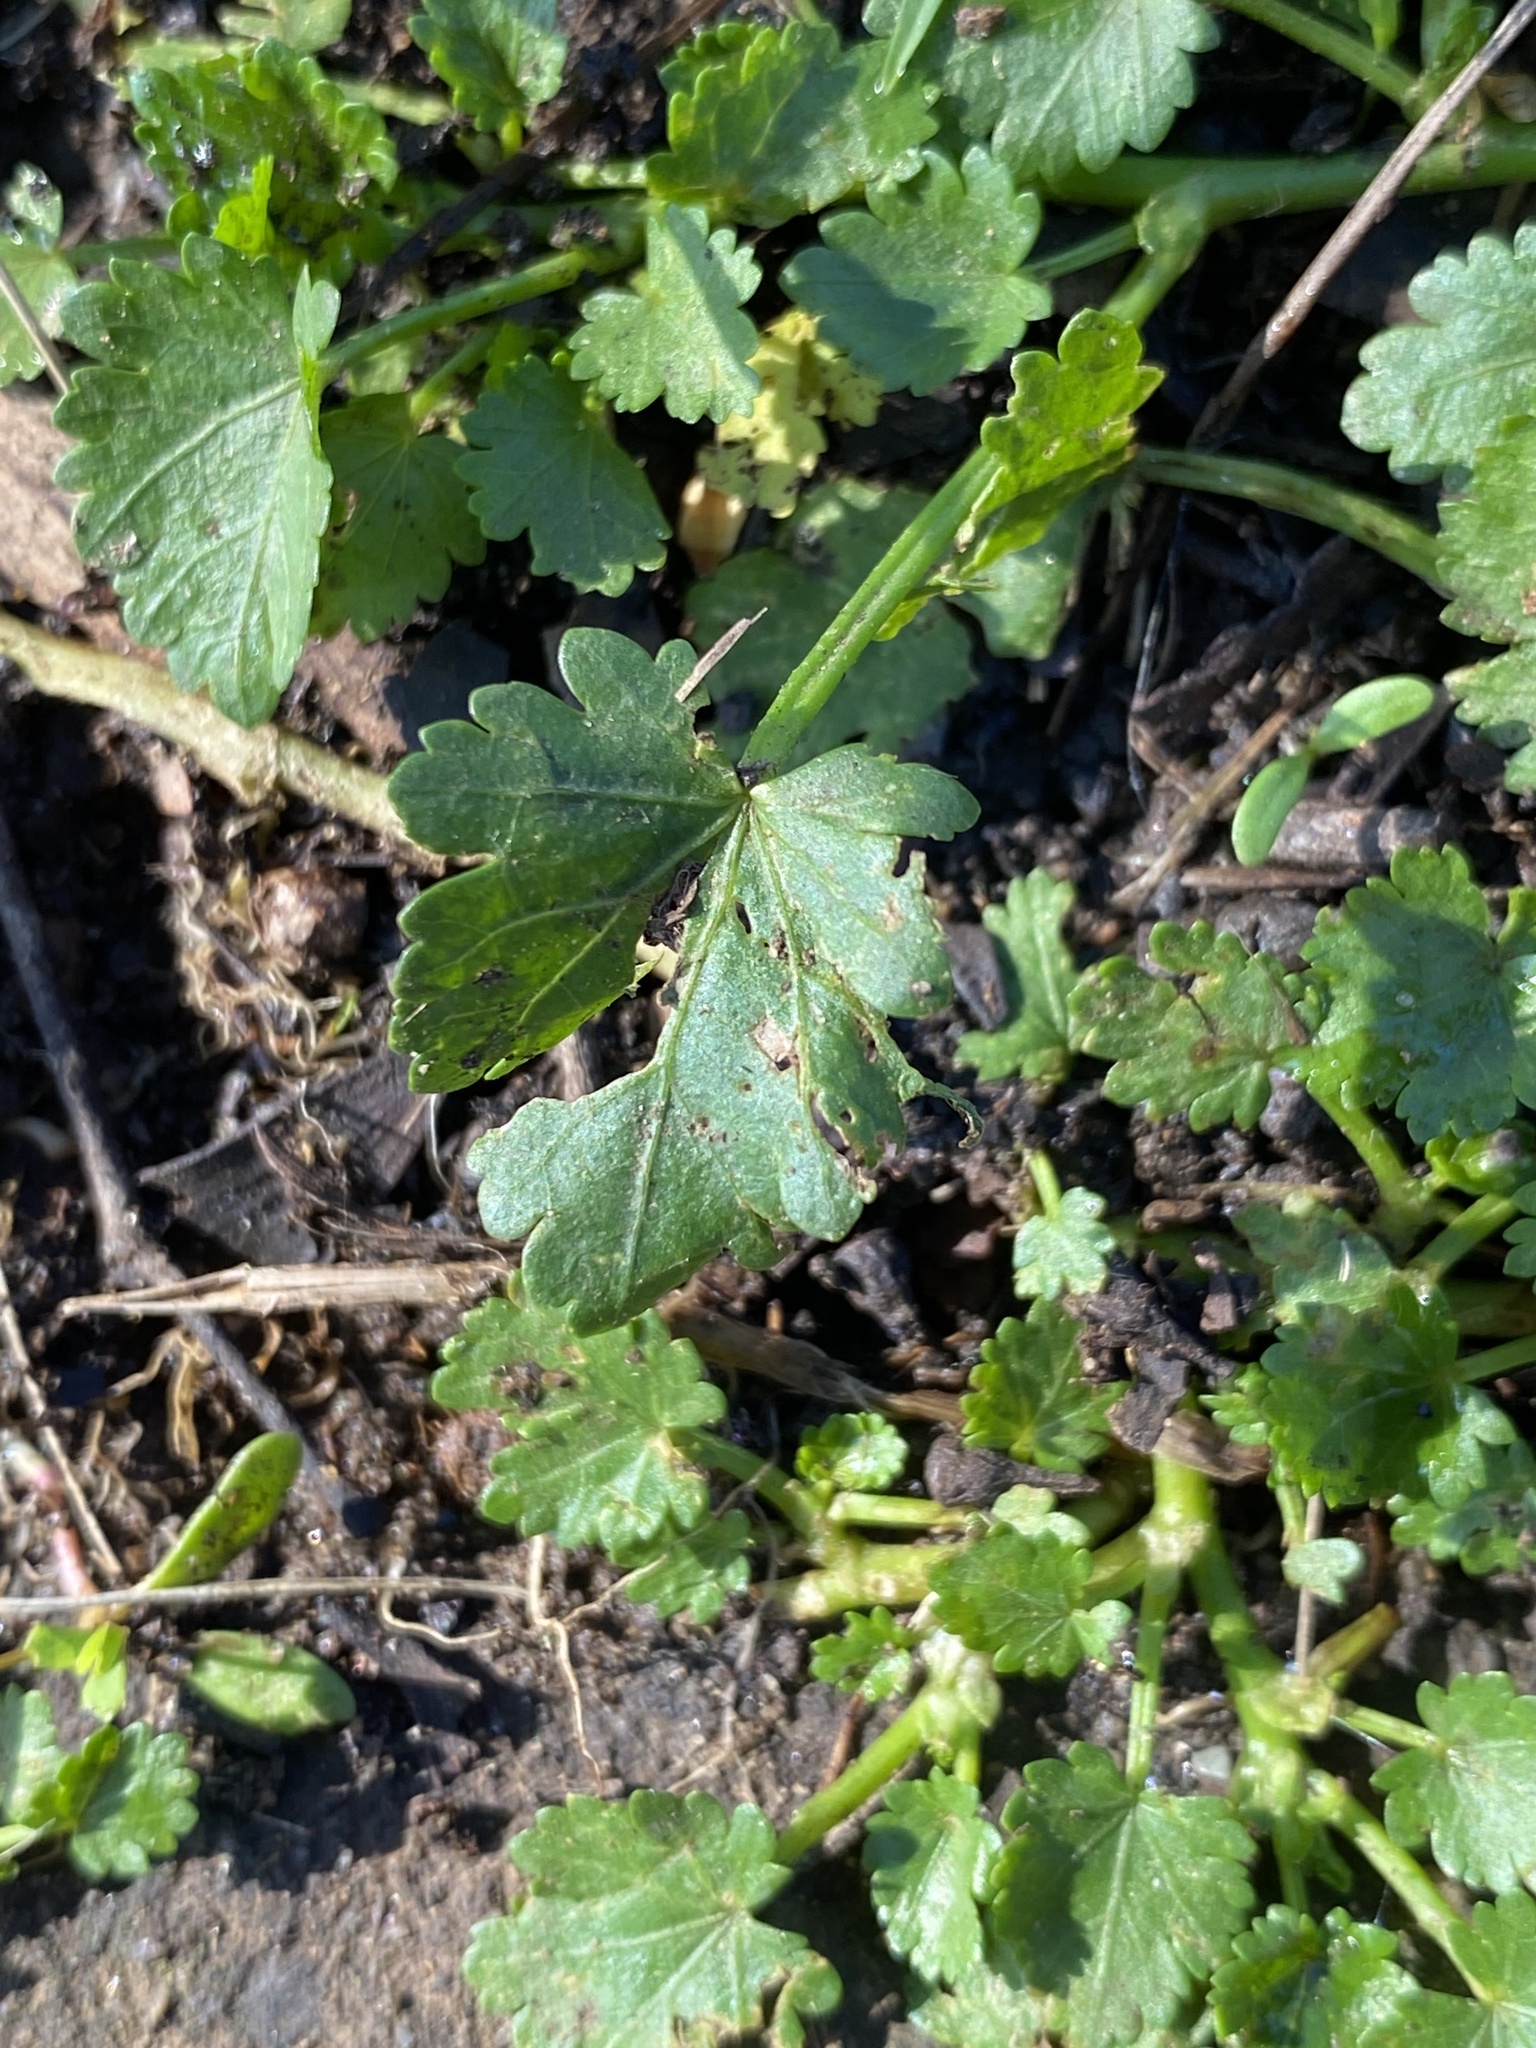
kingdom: Plantae
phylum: Tracheophyta
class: Magnoliopsida
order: Malvales
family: Malvaceae
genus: Modiola
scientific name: Modiola caroliniana
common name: Carolina bristlemallow
